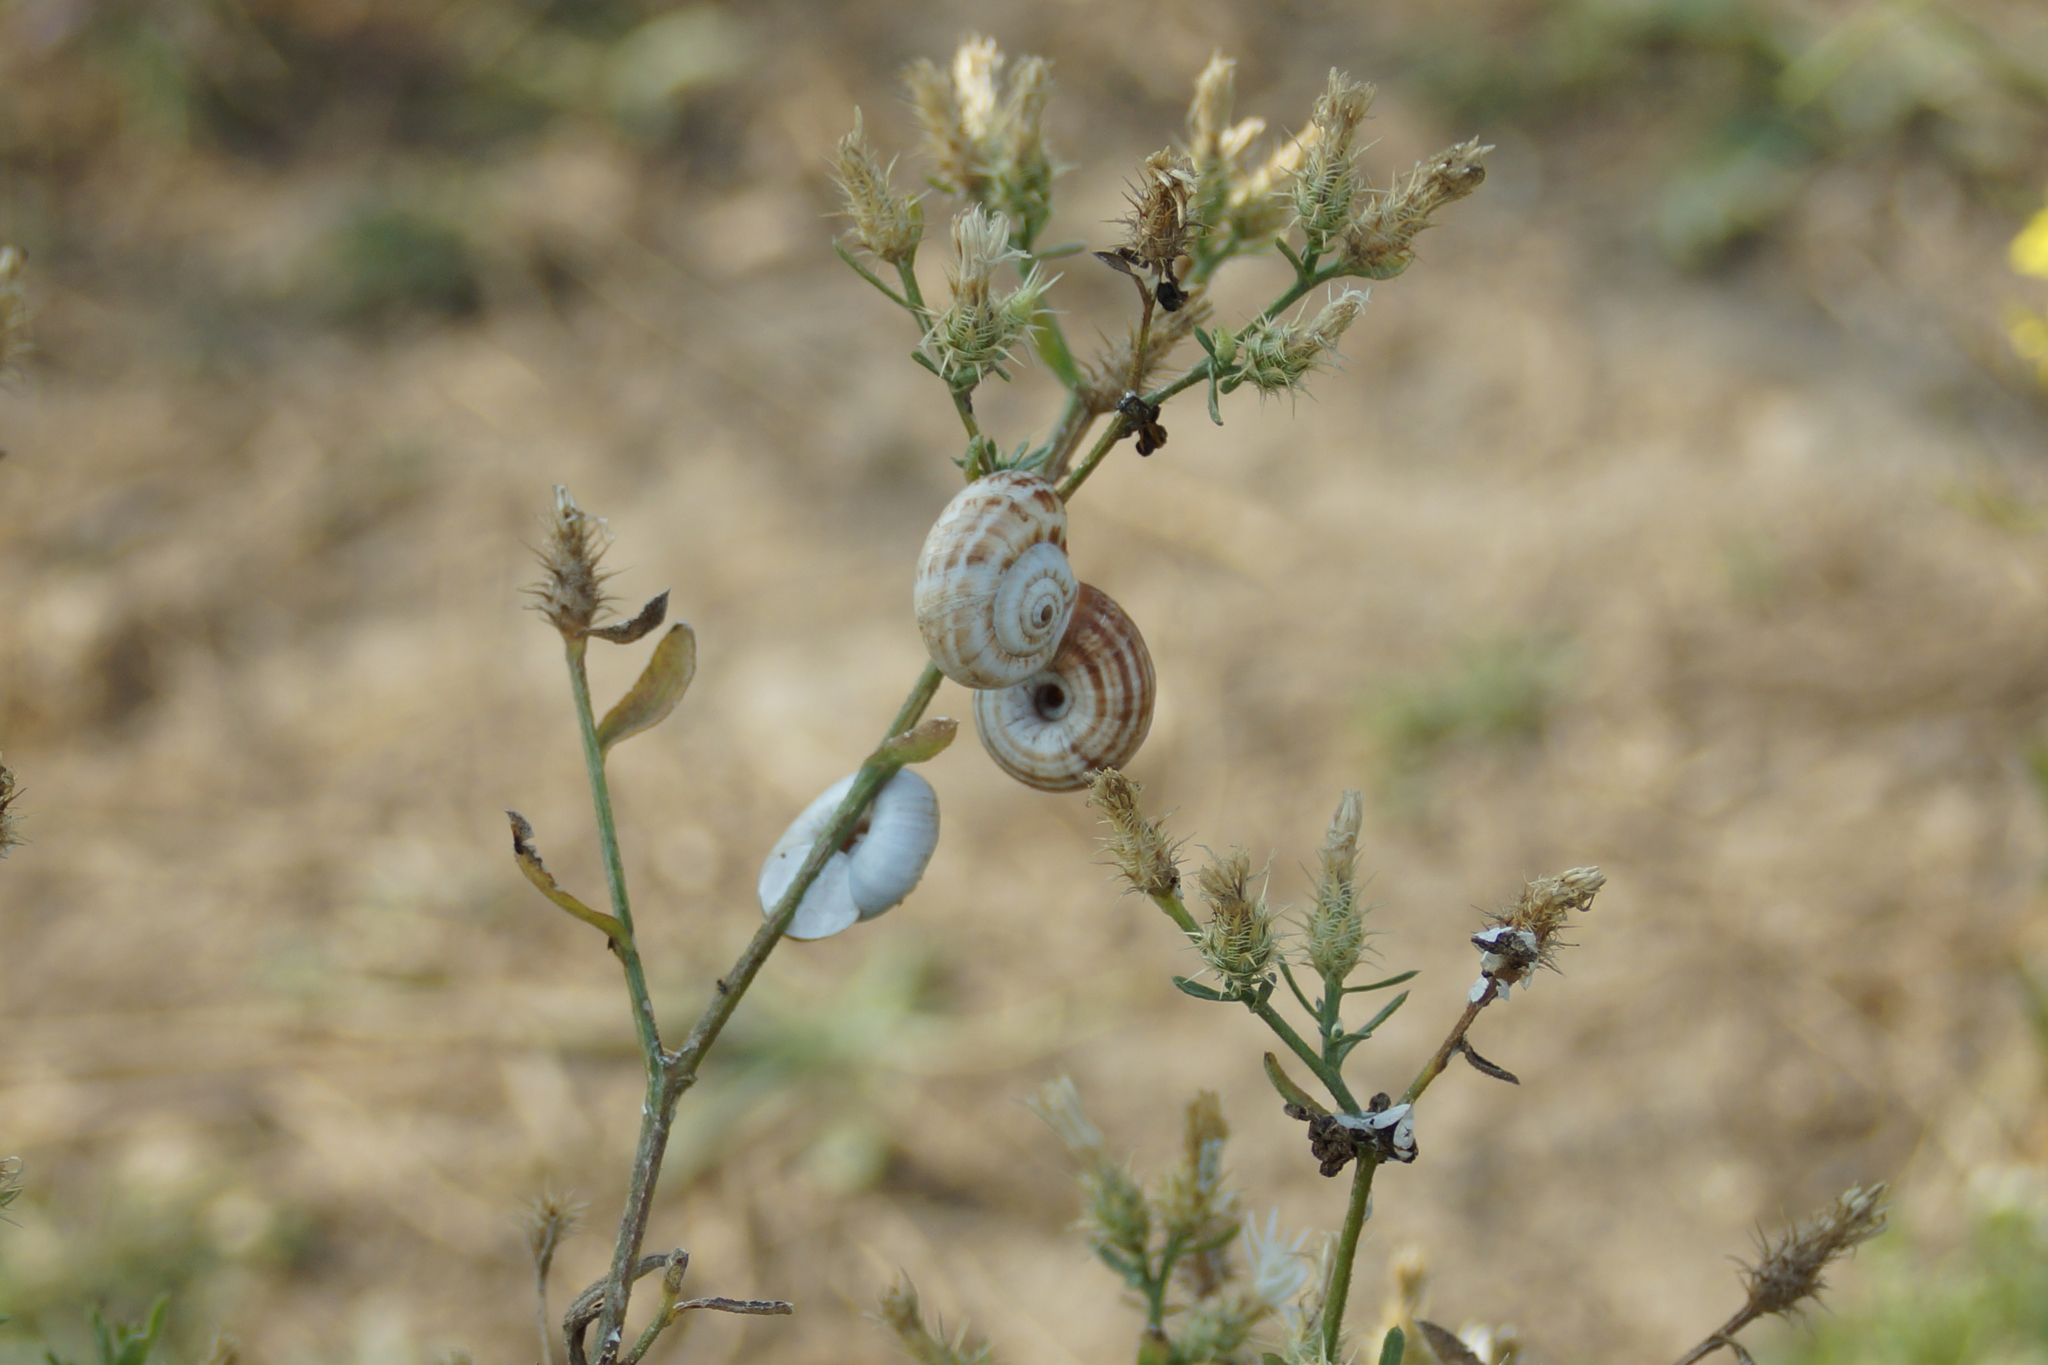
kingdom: Animalia
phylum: Mollusca
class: Gastropoda
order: Stylommatophora
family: Geomitridae
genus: Xeropicta
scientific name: Xeropicta derbentina
